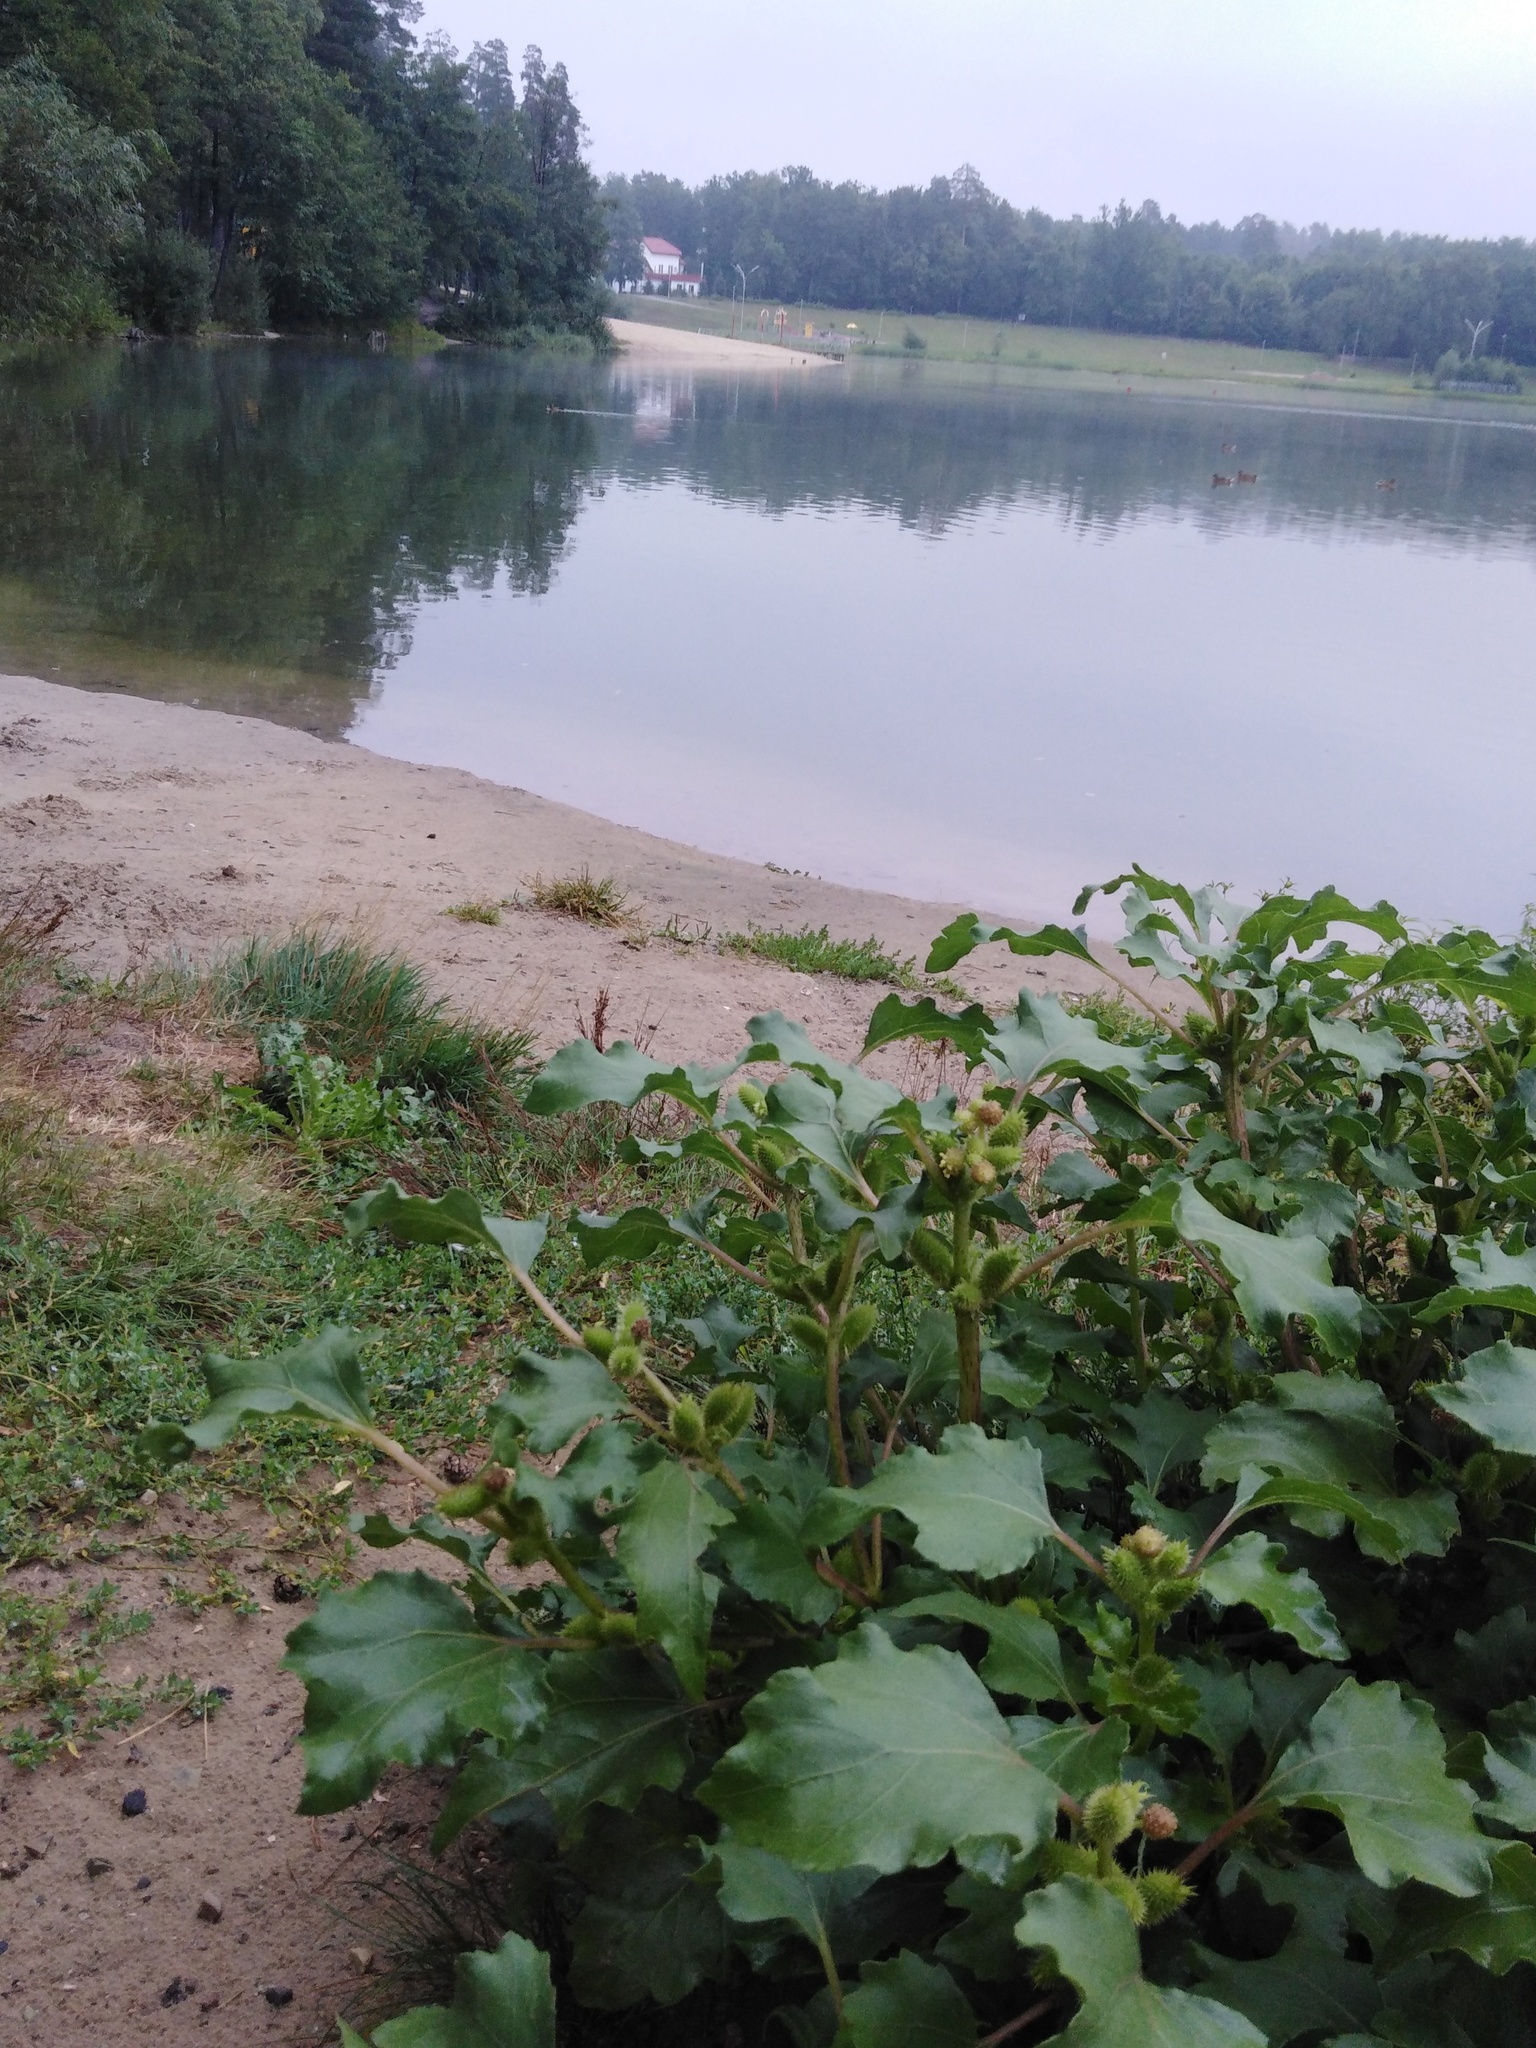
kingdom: Plantae
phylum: Tracheophyta
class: Magnoliopsida
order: Asterales
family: Asteraceae
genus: Xanthium
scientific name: Xanthium orientale
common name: Californian burr
